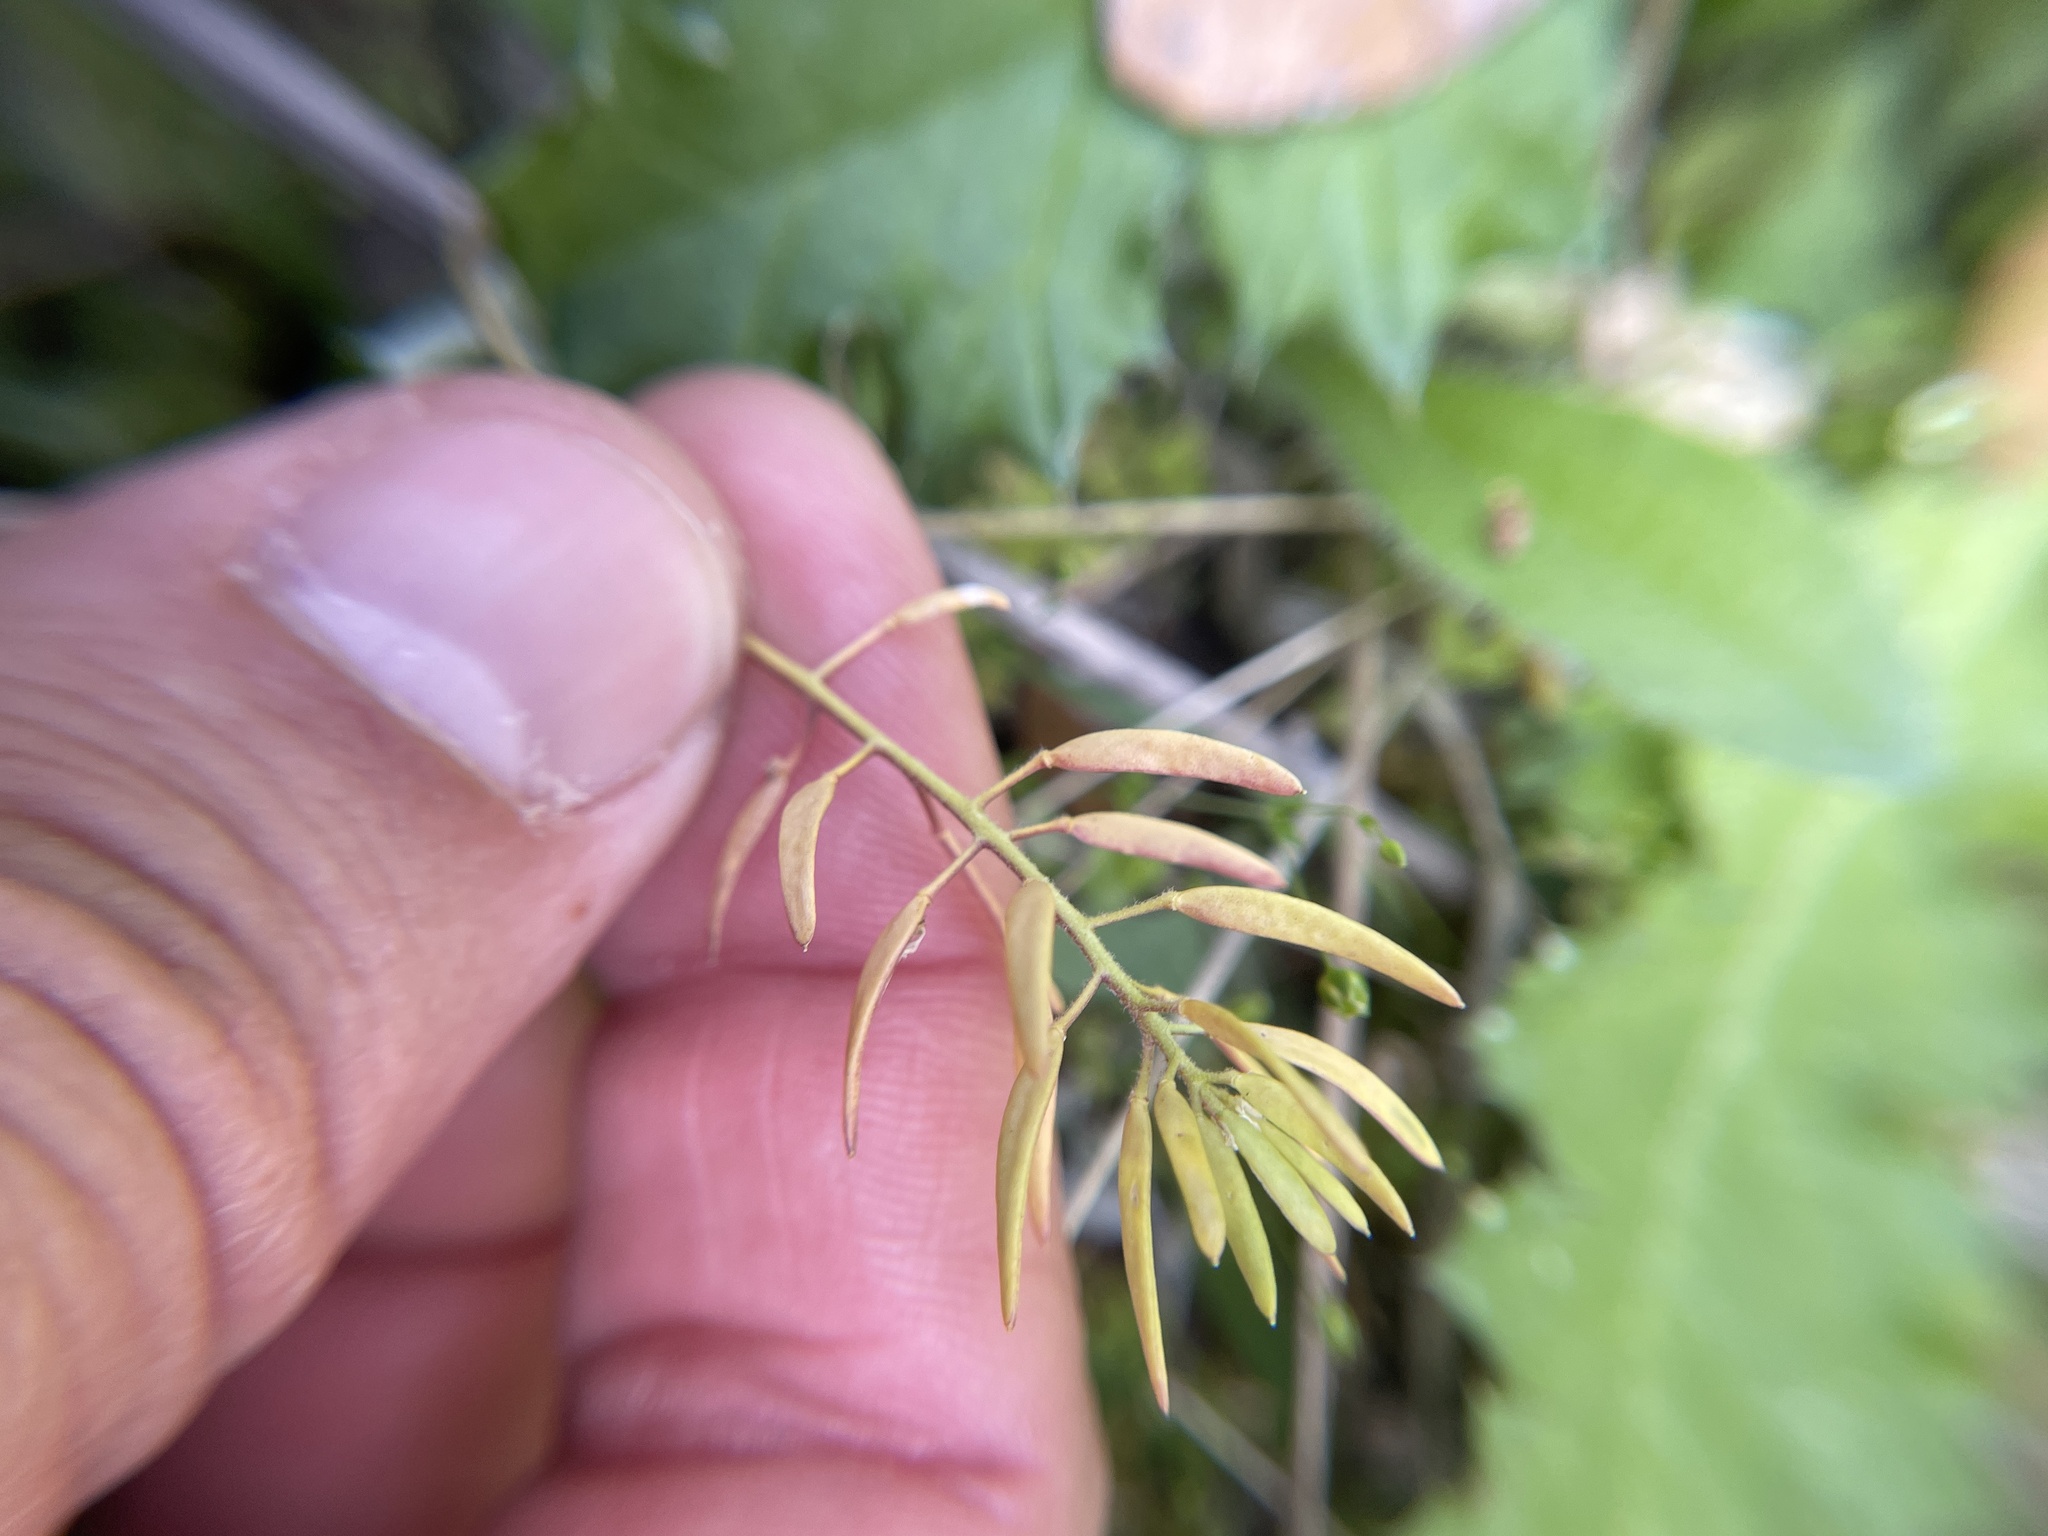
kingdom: Plantae
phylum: Tracheophyta
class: Magnoliopsida
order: Brassicales
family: Brassicaceae
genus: Tomostima
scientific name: Tomostima cuneifolia
